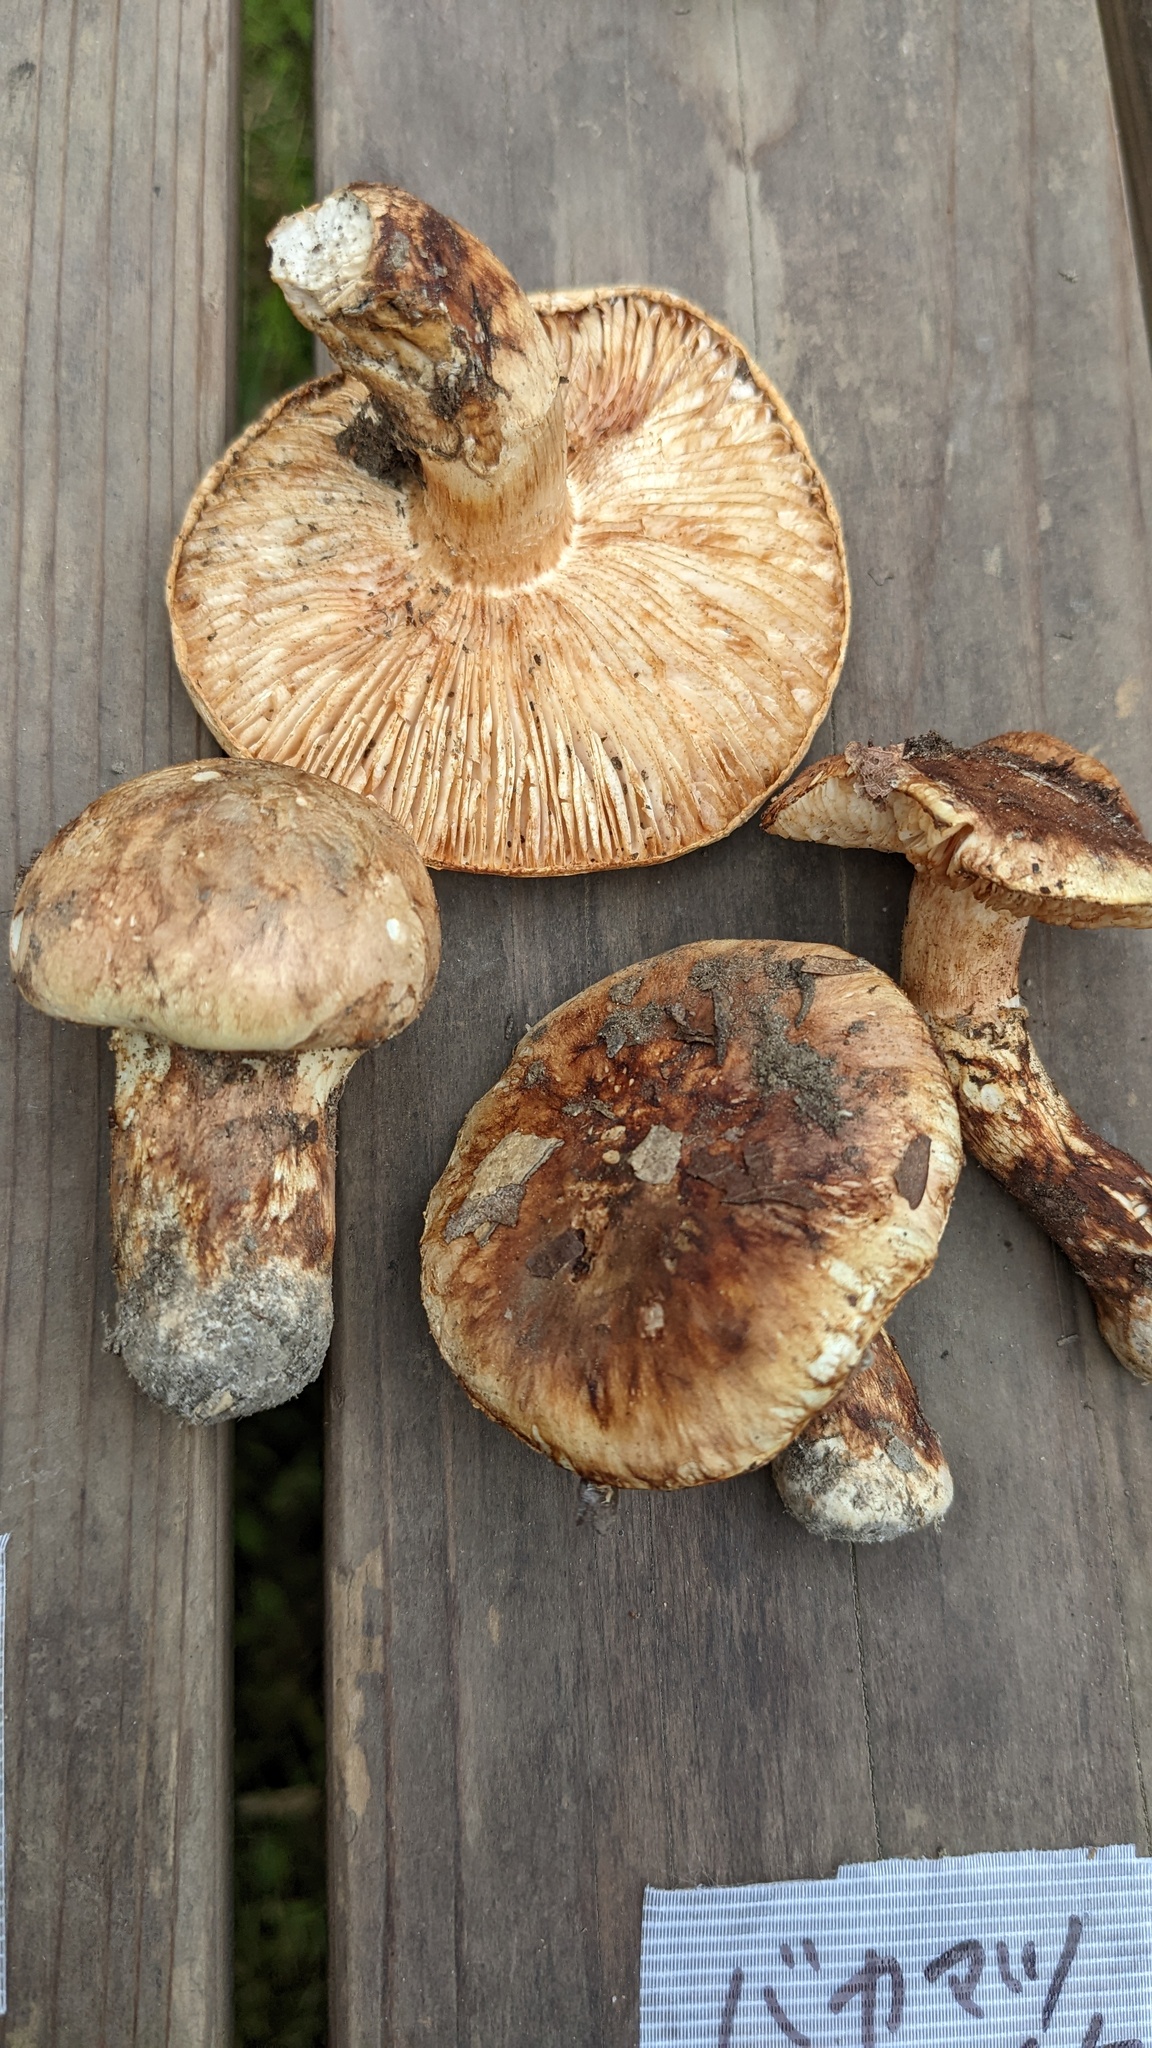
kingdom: Fungi
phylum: Basidiomycota
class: Agaricomycetes
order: Agaricales
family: Tricholomataceae
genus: Tricholoma
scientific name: Tricholoma bakamatsutake
